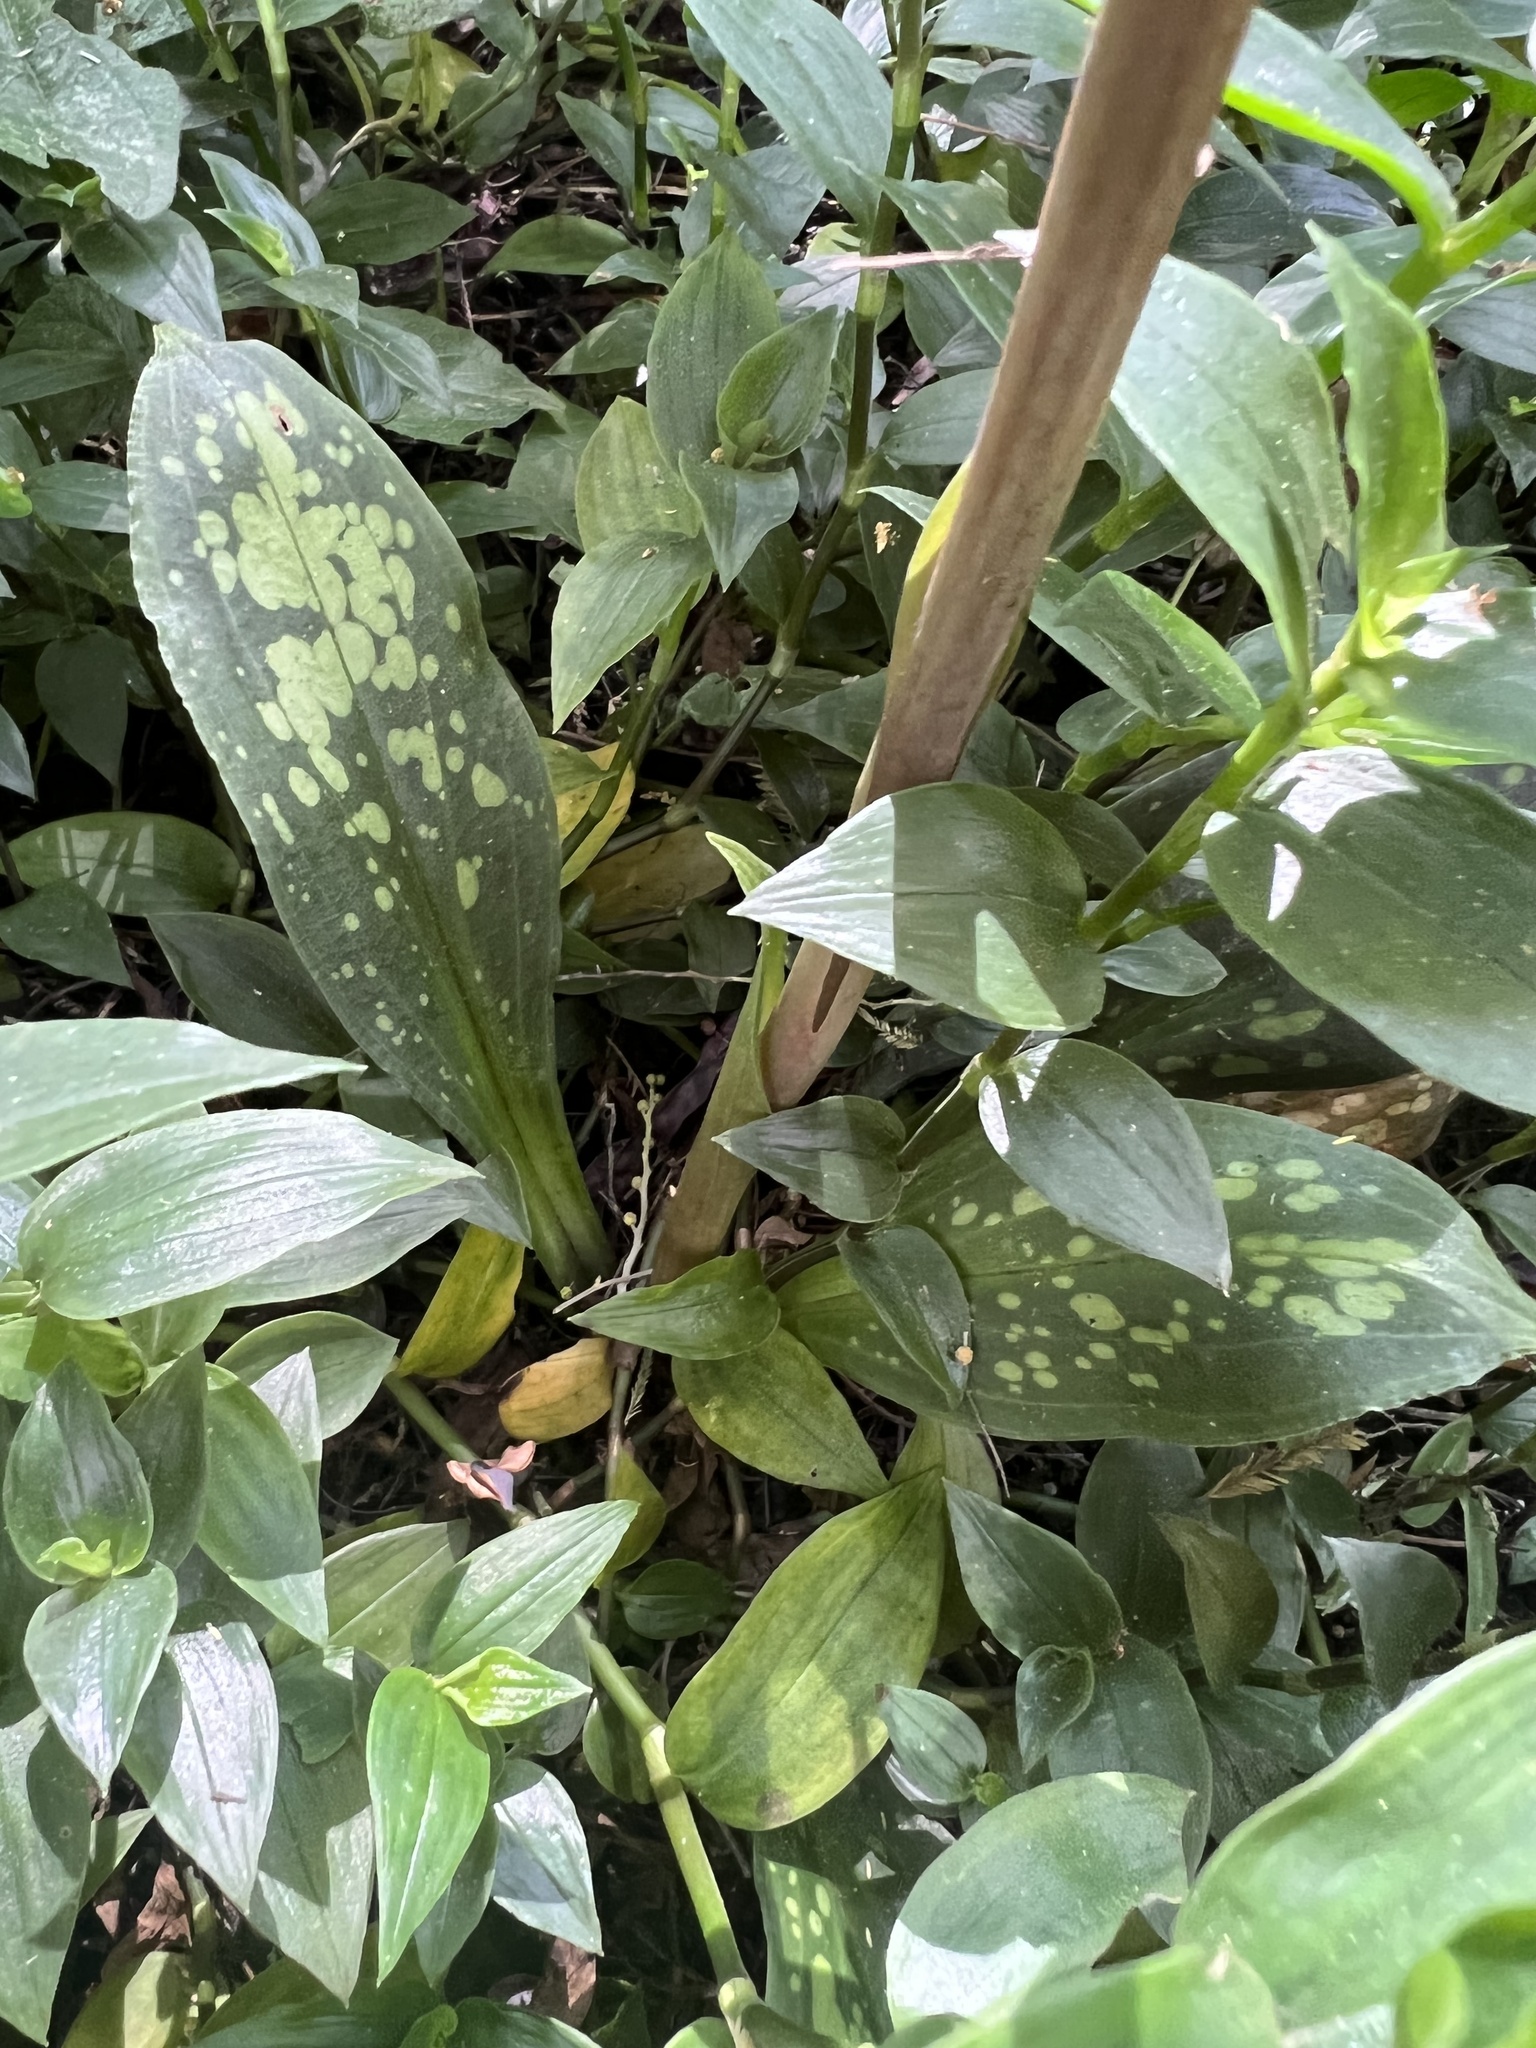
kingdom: Plantae
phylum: Tracheophyta
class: Liliopsida
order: Asparagales
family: Orchidaceae
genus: Stenorrhynchos
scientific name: Stenorrhynchos albidomaculatum
